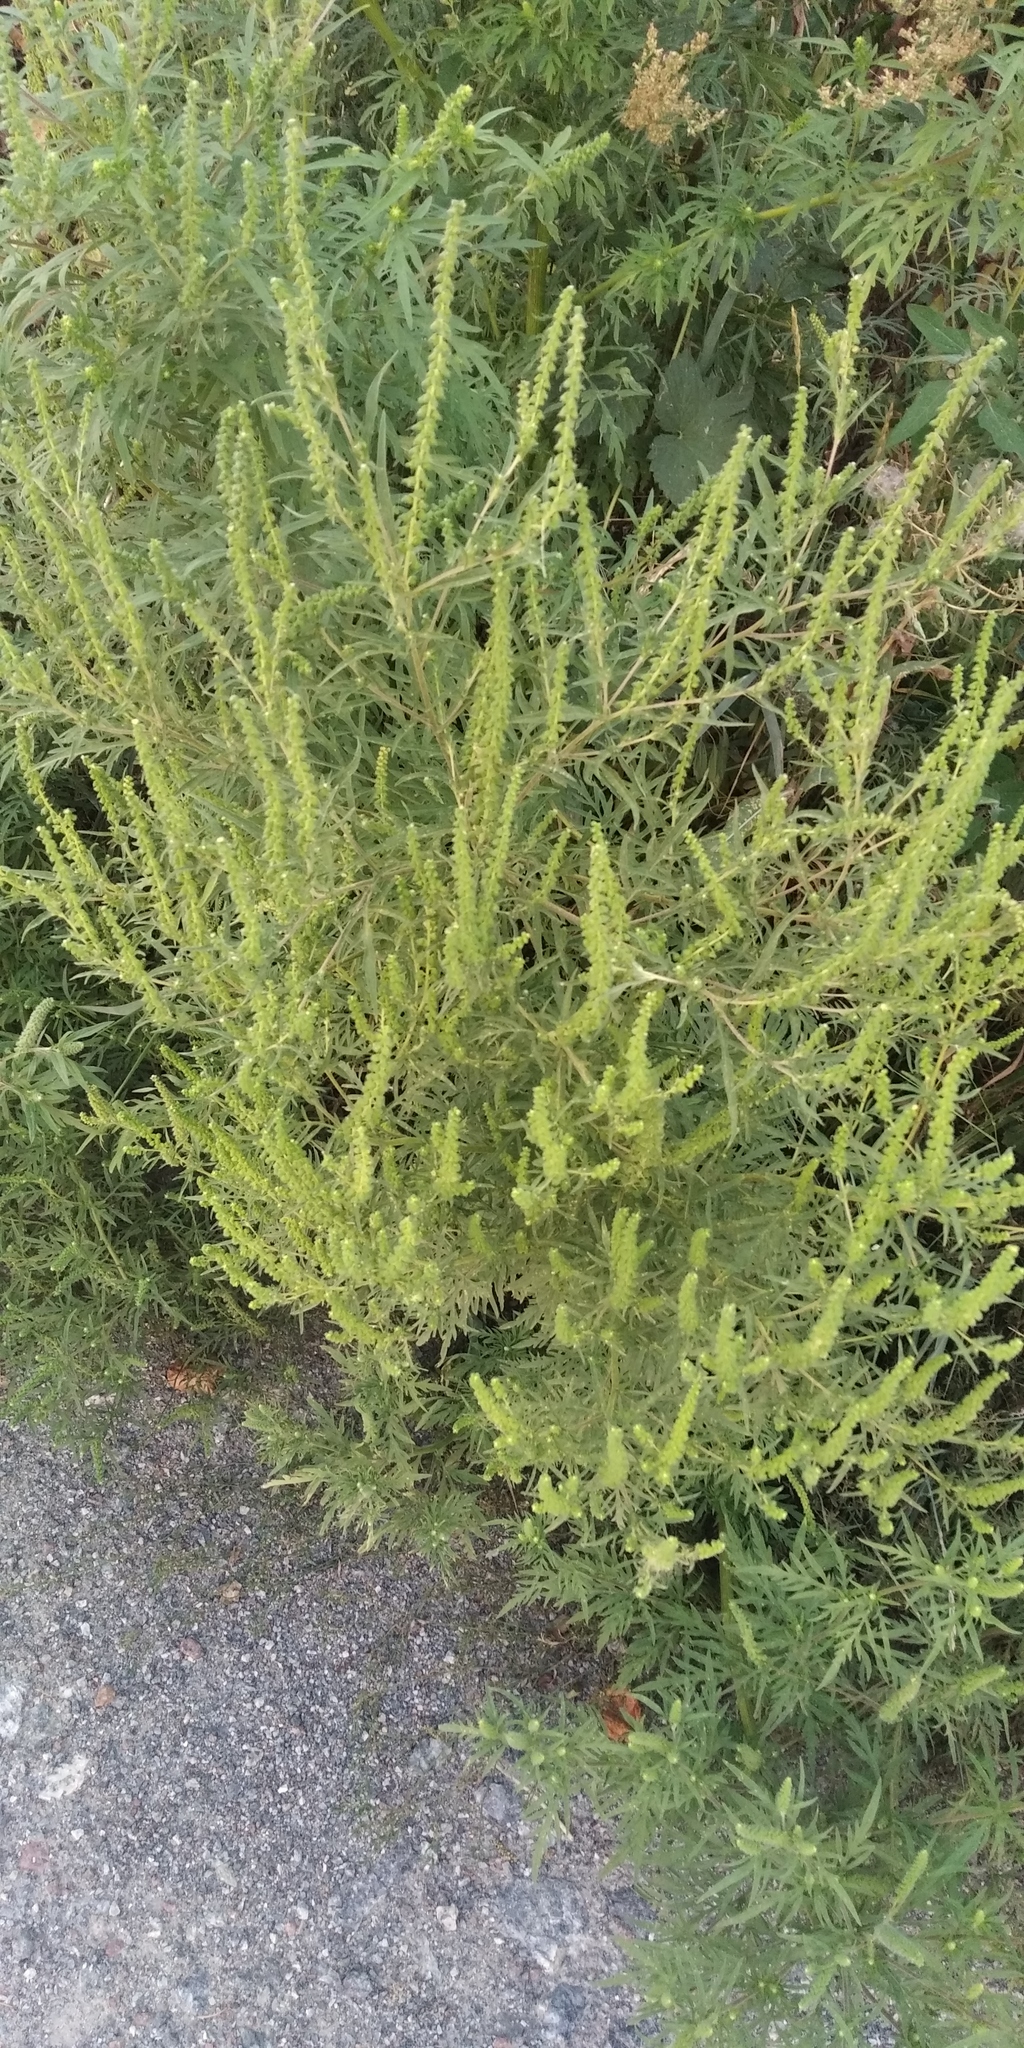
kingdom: Plantae
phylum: Tracheophyta
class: Magnoliopsida
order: Asterales
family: Asteraceae
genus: Ambrosia
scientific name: Ambrosia artemisiifolia
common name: Annual ragweed
